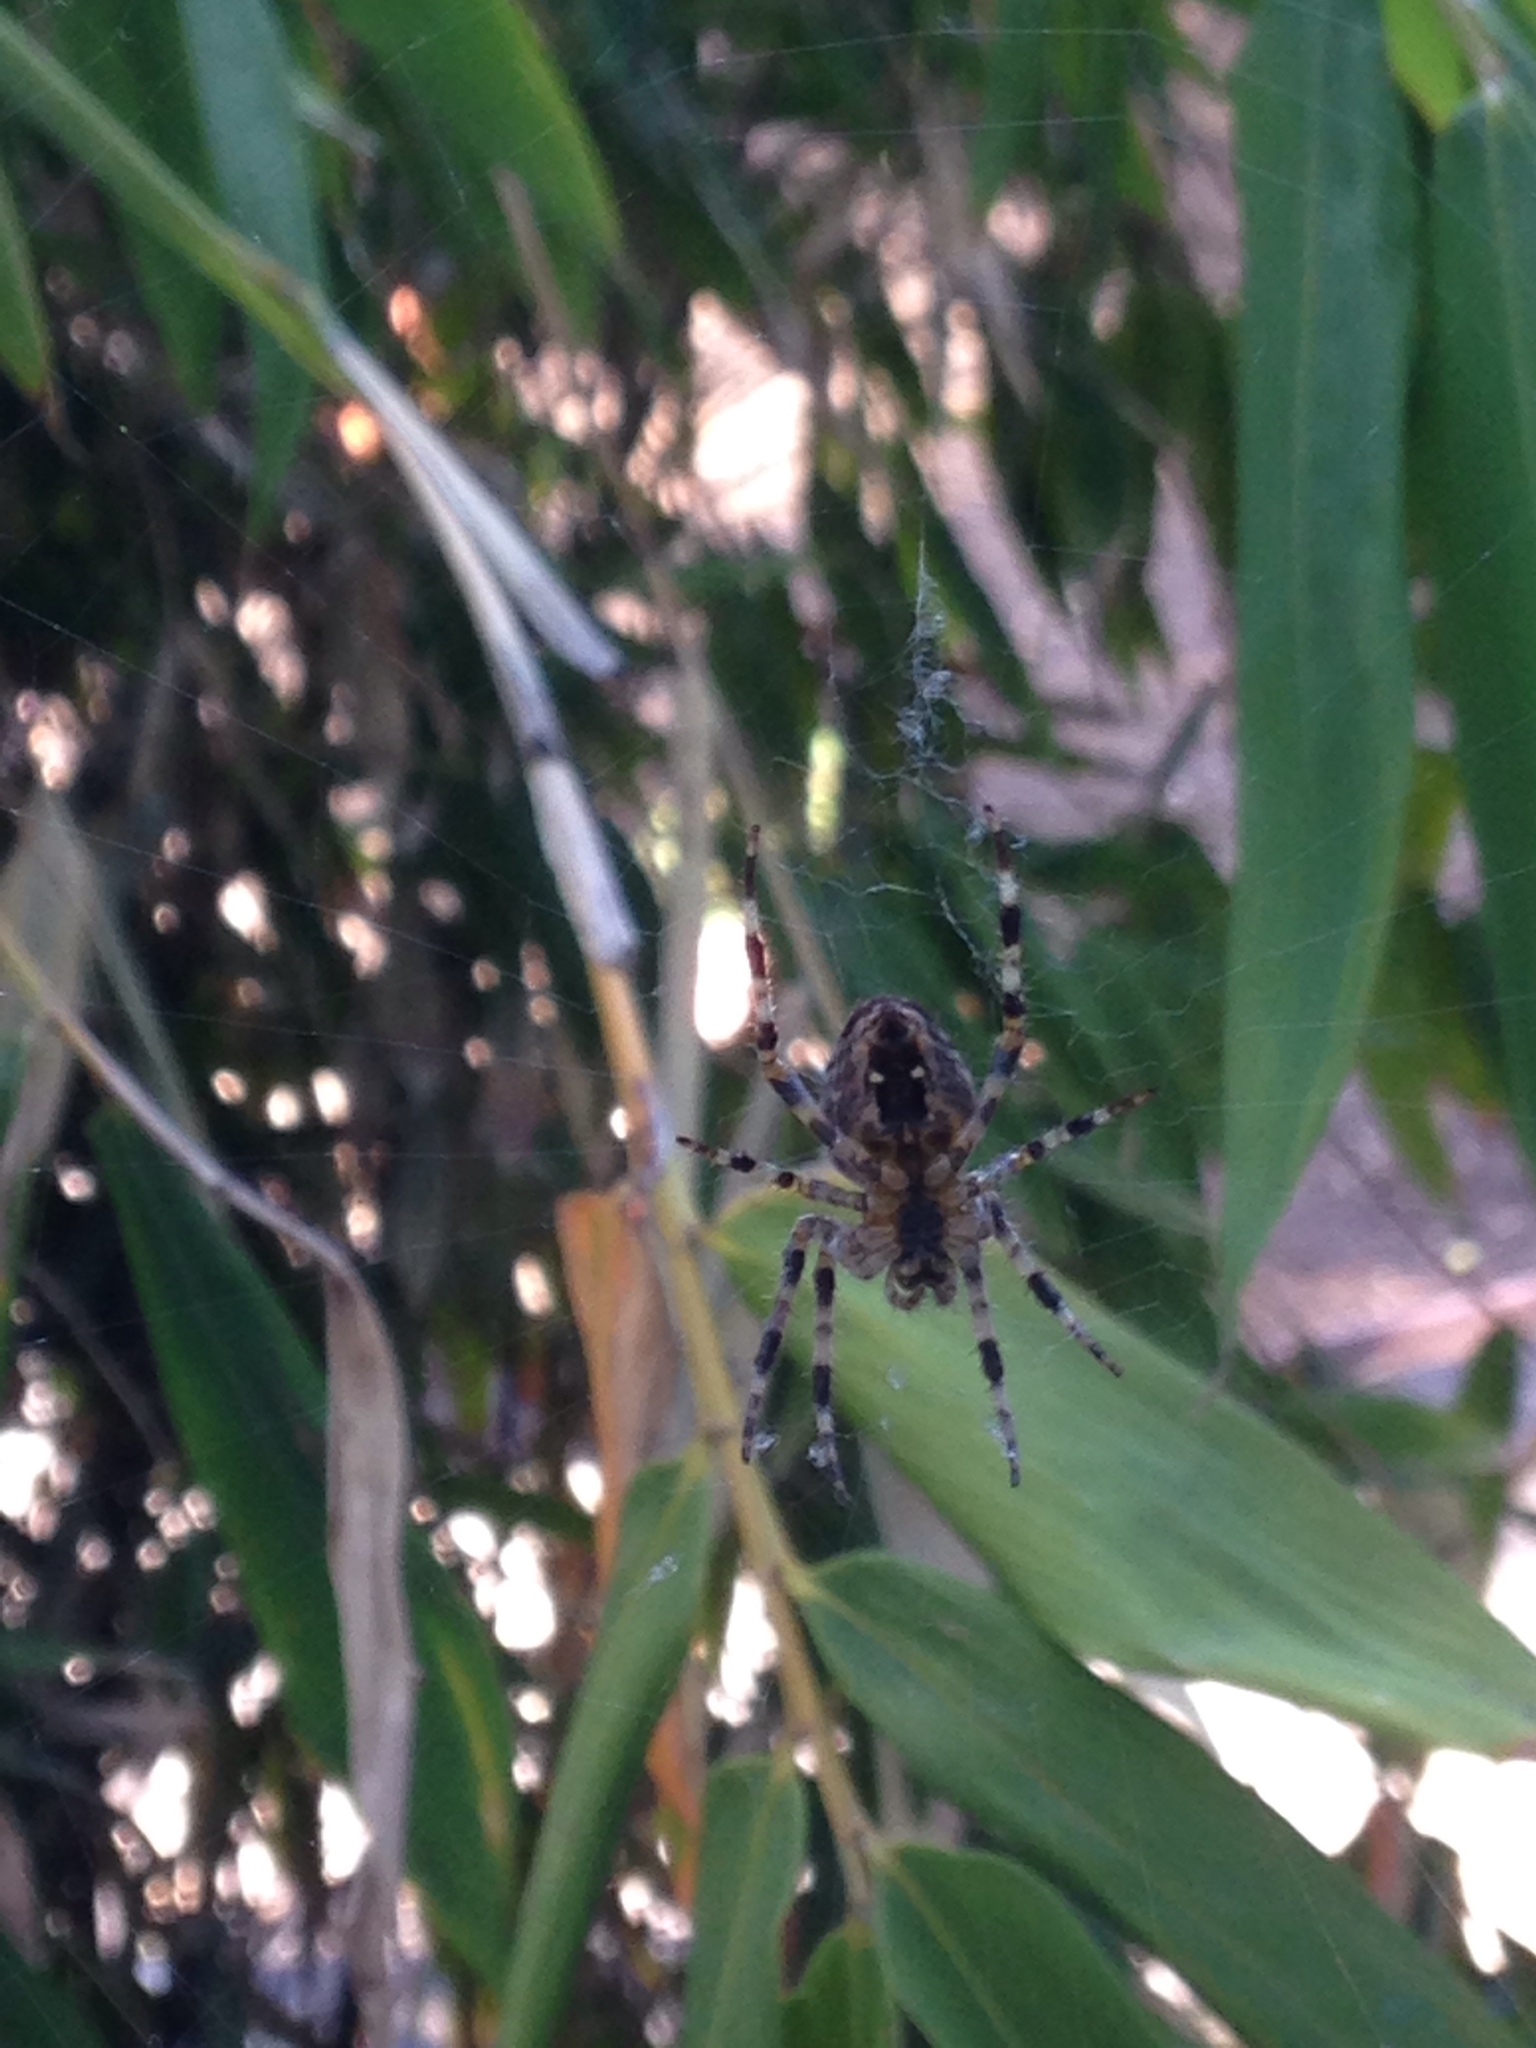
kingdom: Animalia
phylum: Arthropoda
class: Arachnida
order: Araneae
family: Araneidae
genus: Araneus
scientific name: Araneus diadematus
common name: Cross orbweaver
